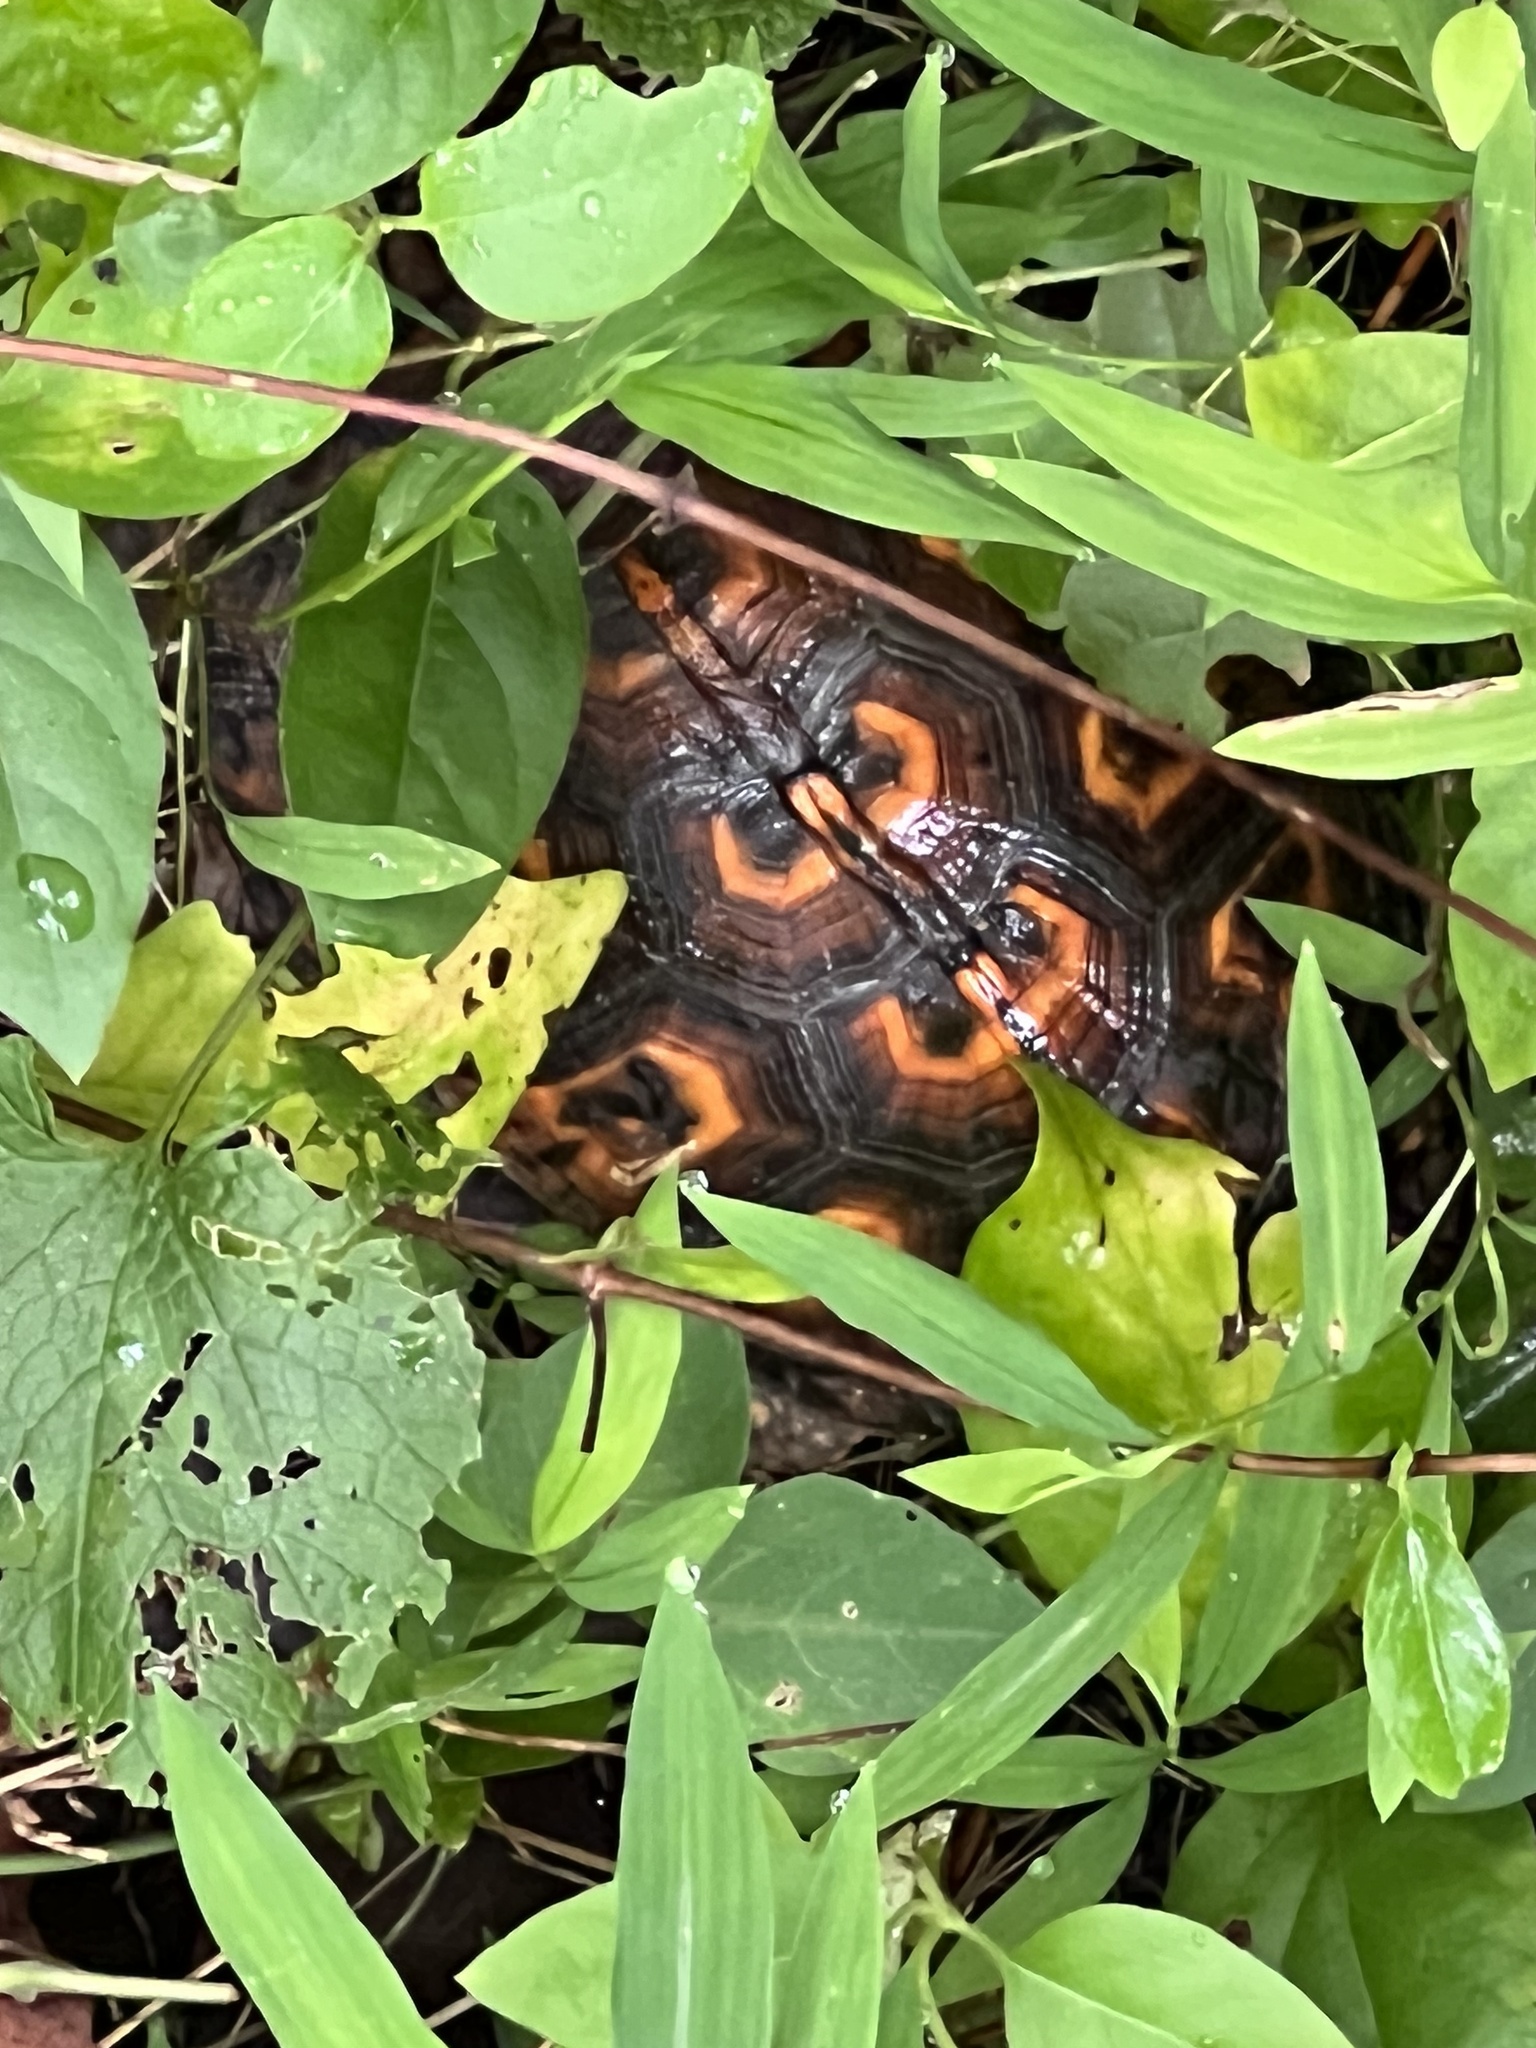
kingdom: Animalia
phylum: Chordata
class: Testudines
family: Emydidae
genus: Terrapene
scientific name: Terrapene carolina
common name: Common box turtle
